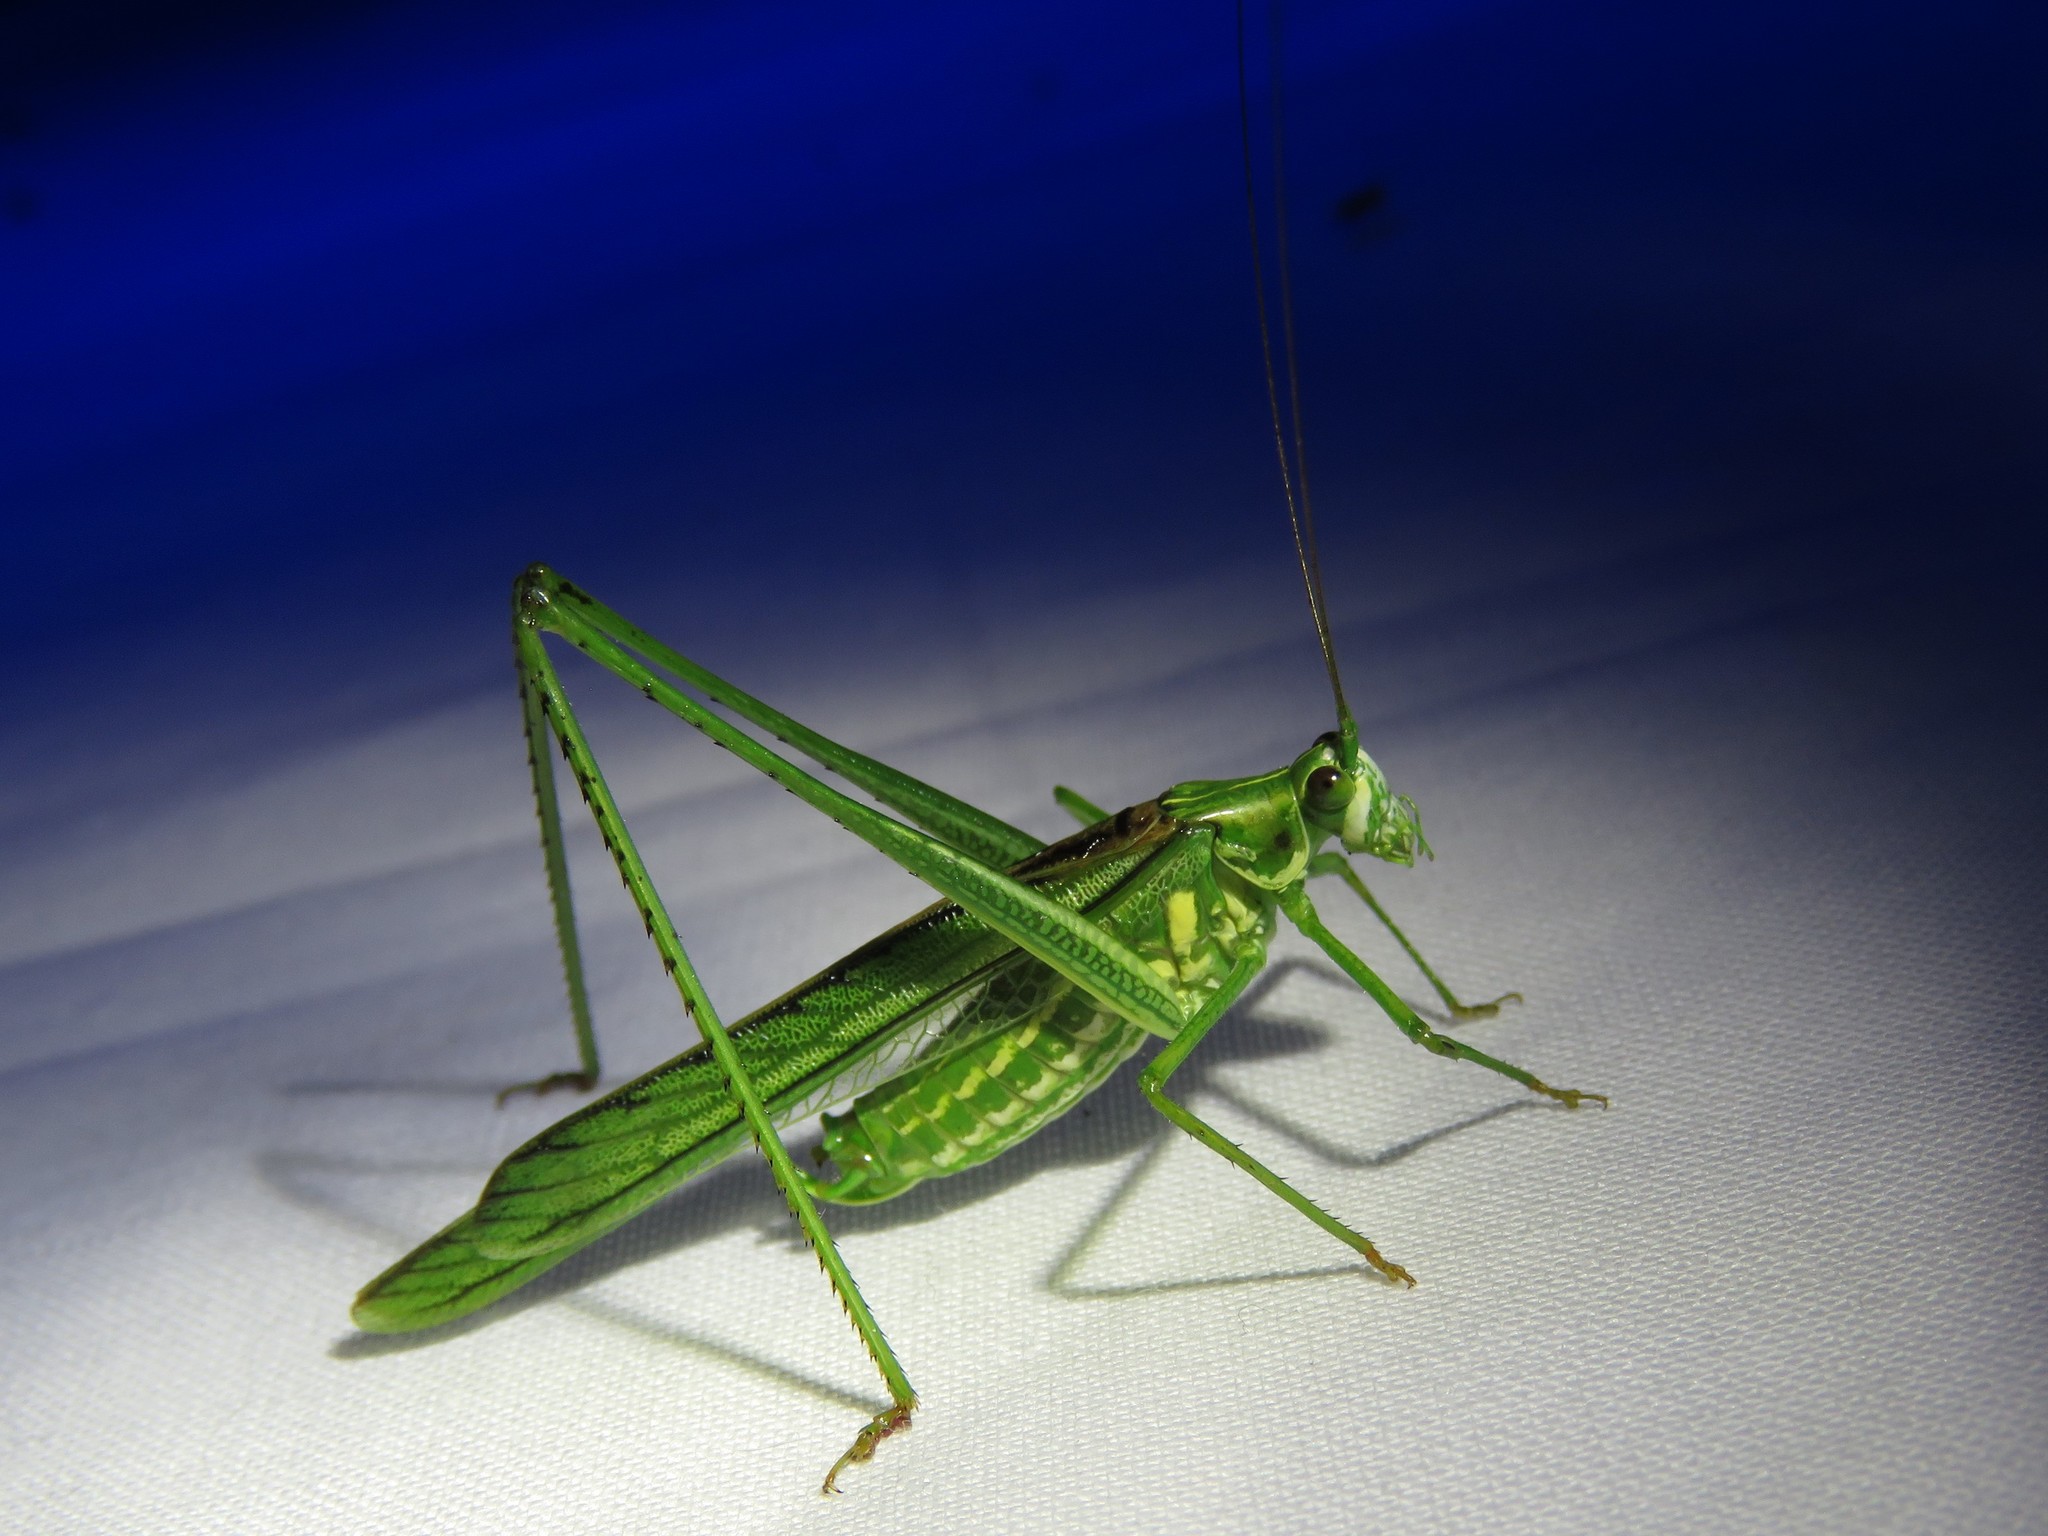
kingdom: Animalia
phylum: Arthropoda
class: Insecta
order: Orthoptera
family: Tettigoniidae
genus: Inscudderia
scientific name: Inscudderia taxodii
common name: Western cypress katydid
